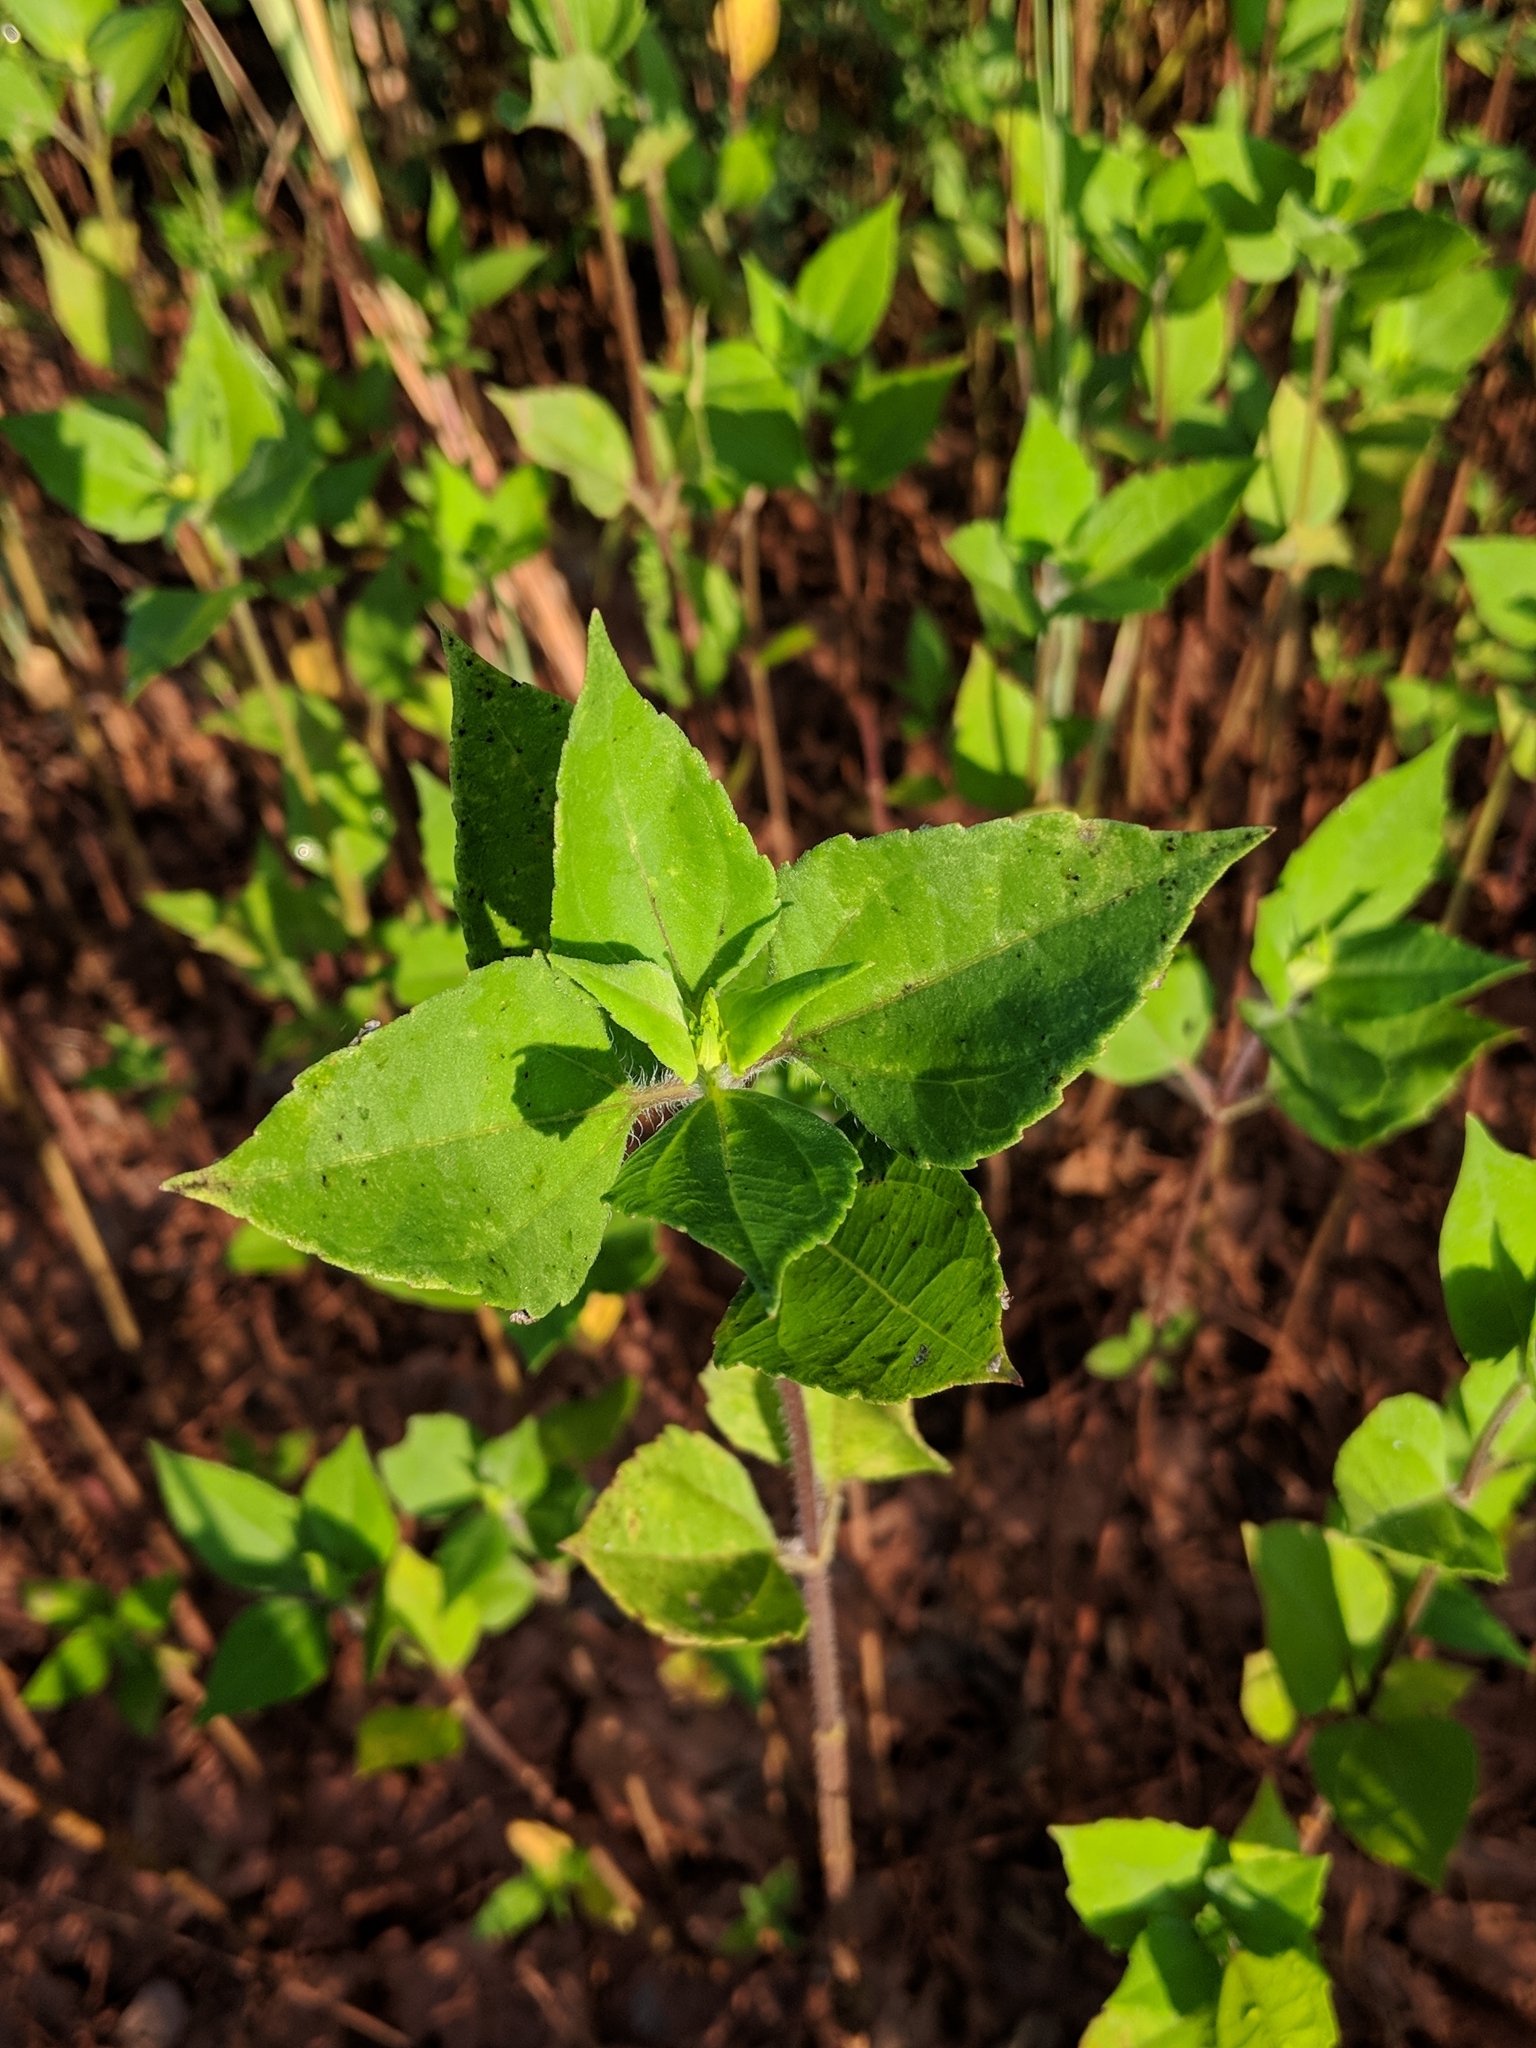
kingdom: Plantae
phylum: Tracheophyta
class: Magnoliopsida
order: Asterales
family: Asteraceae
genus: Iva
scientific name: Iva annua
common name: Marsh-elder
